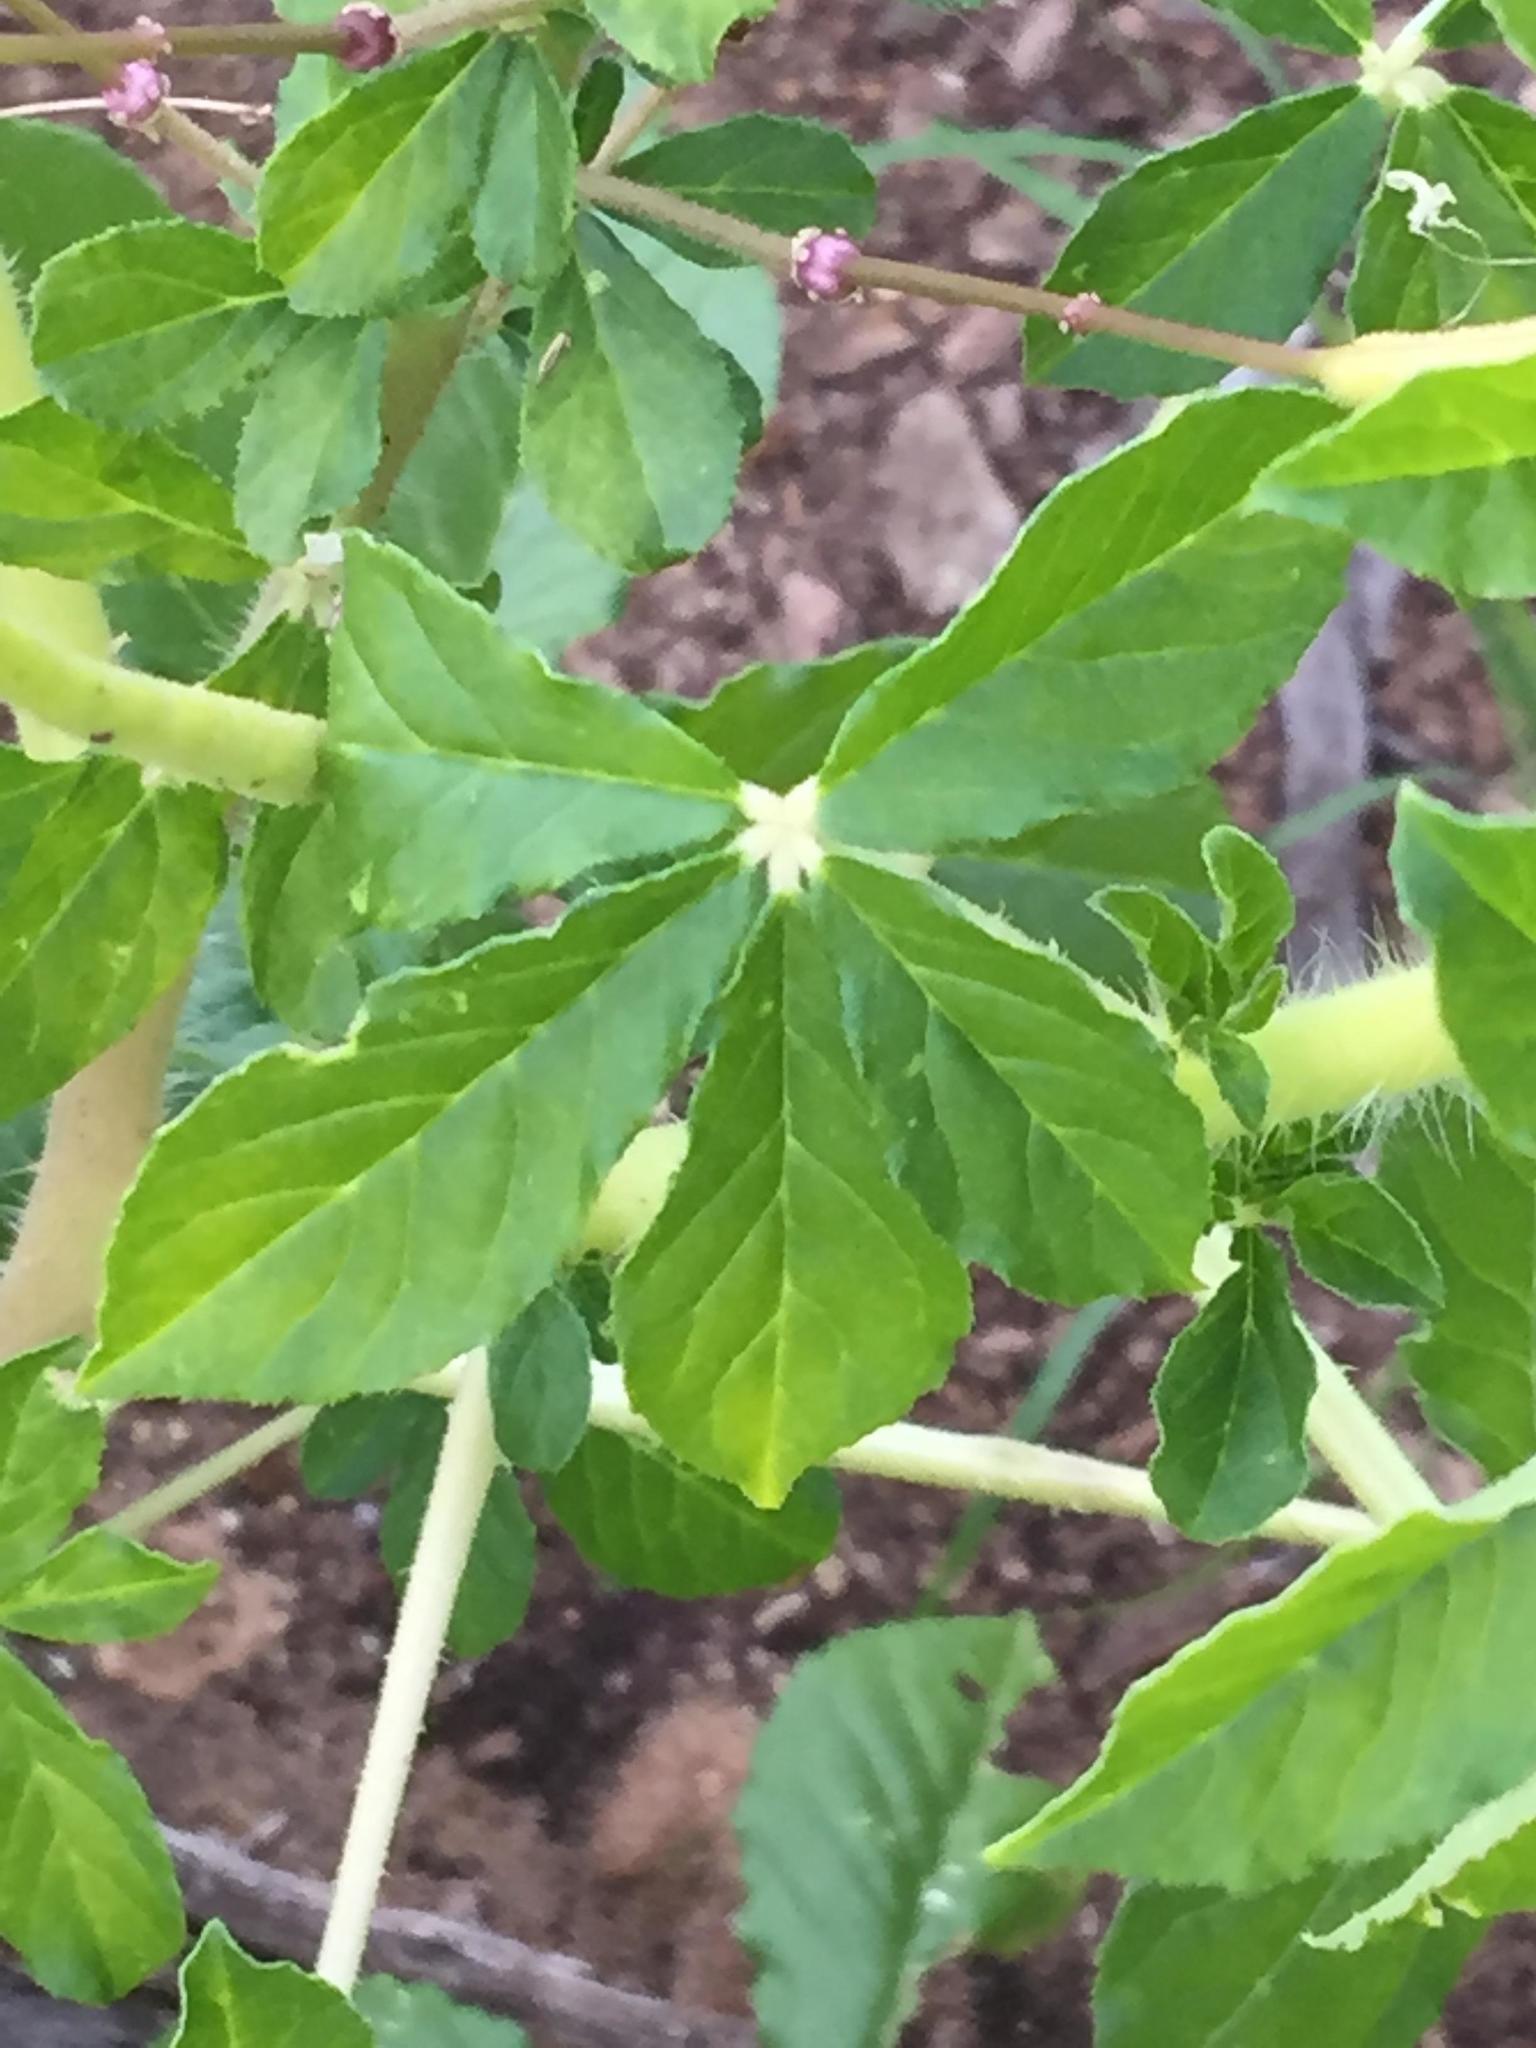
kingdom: Plantae
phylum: Tracheophyta
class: Magnoliopsida
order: Brassicales
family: Cleomaceae
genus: Gynandropsis
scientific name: Gynandropsis gynandra
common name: Spiderwisp
